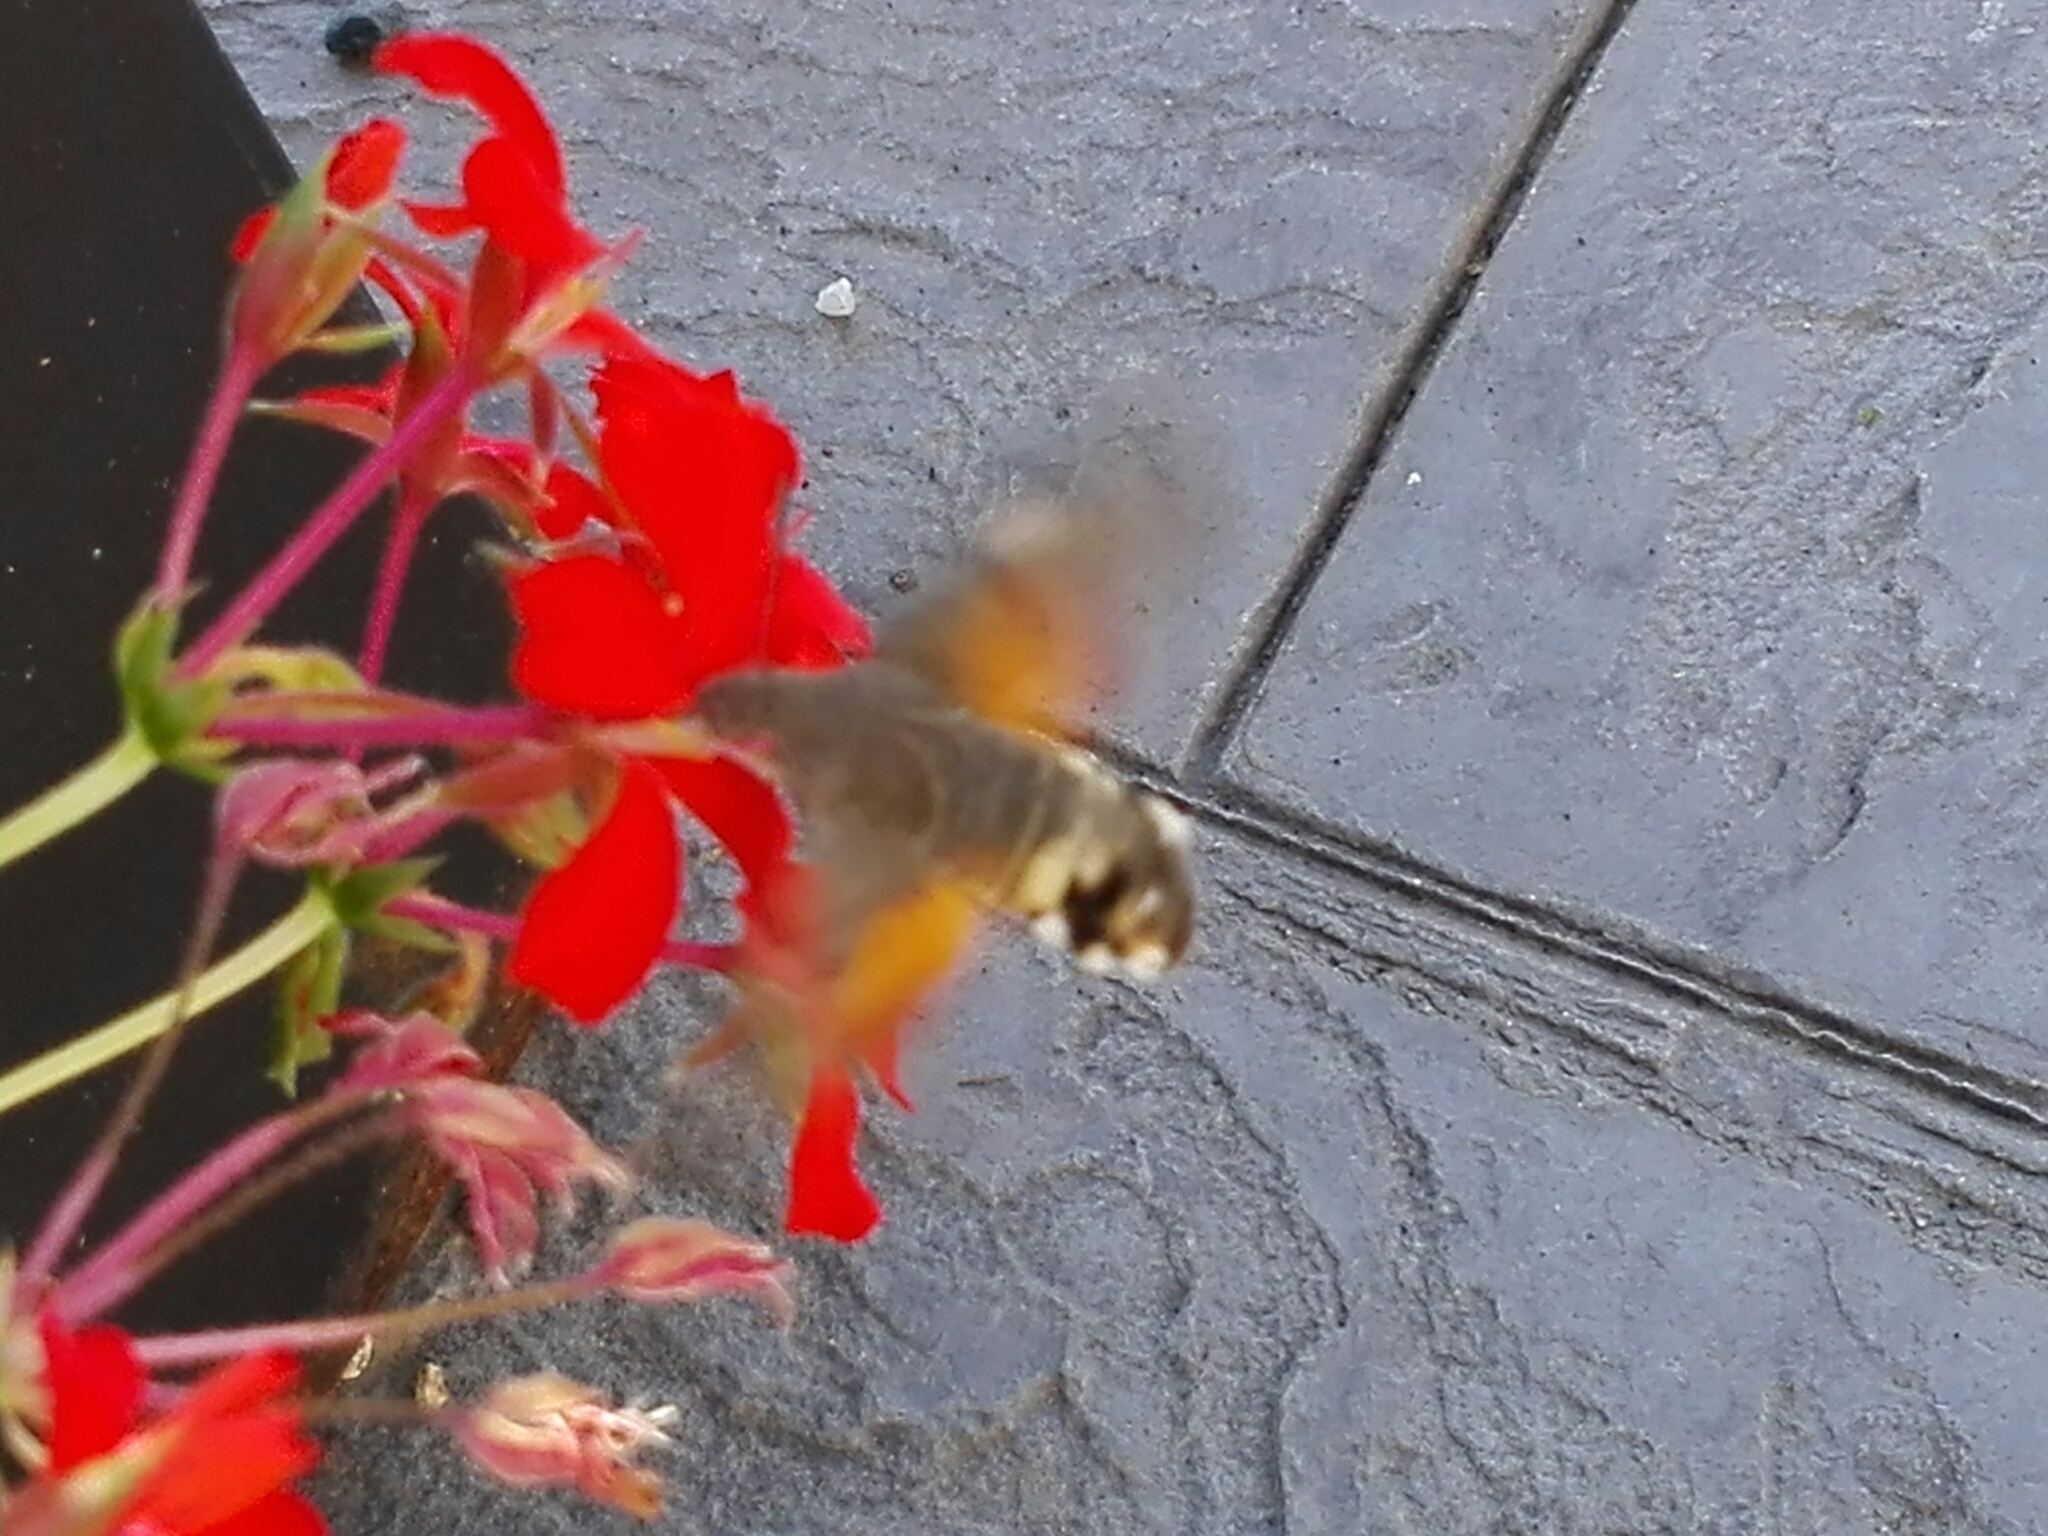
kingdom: Animalia
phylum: Arthropoda
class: Insecta
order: Lepidoptera
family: Sphingidae
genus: Macroglossum
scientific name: Macroglossum stellatarum
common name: Humming-bird hawk-moth
